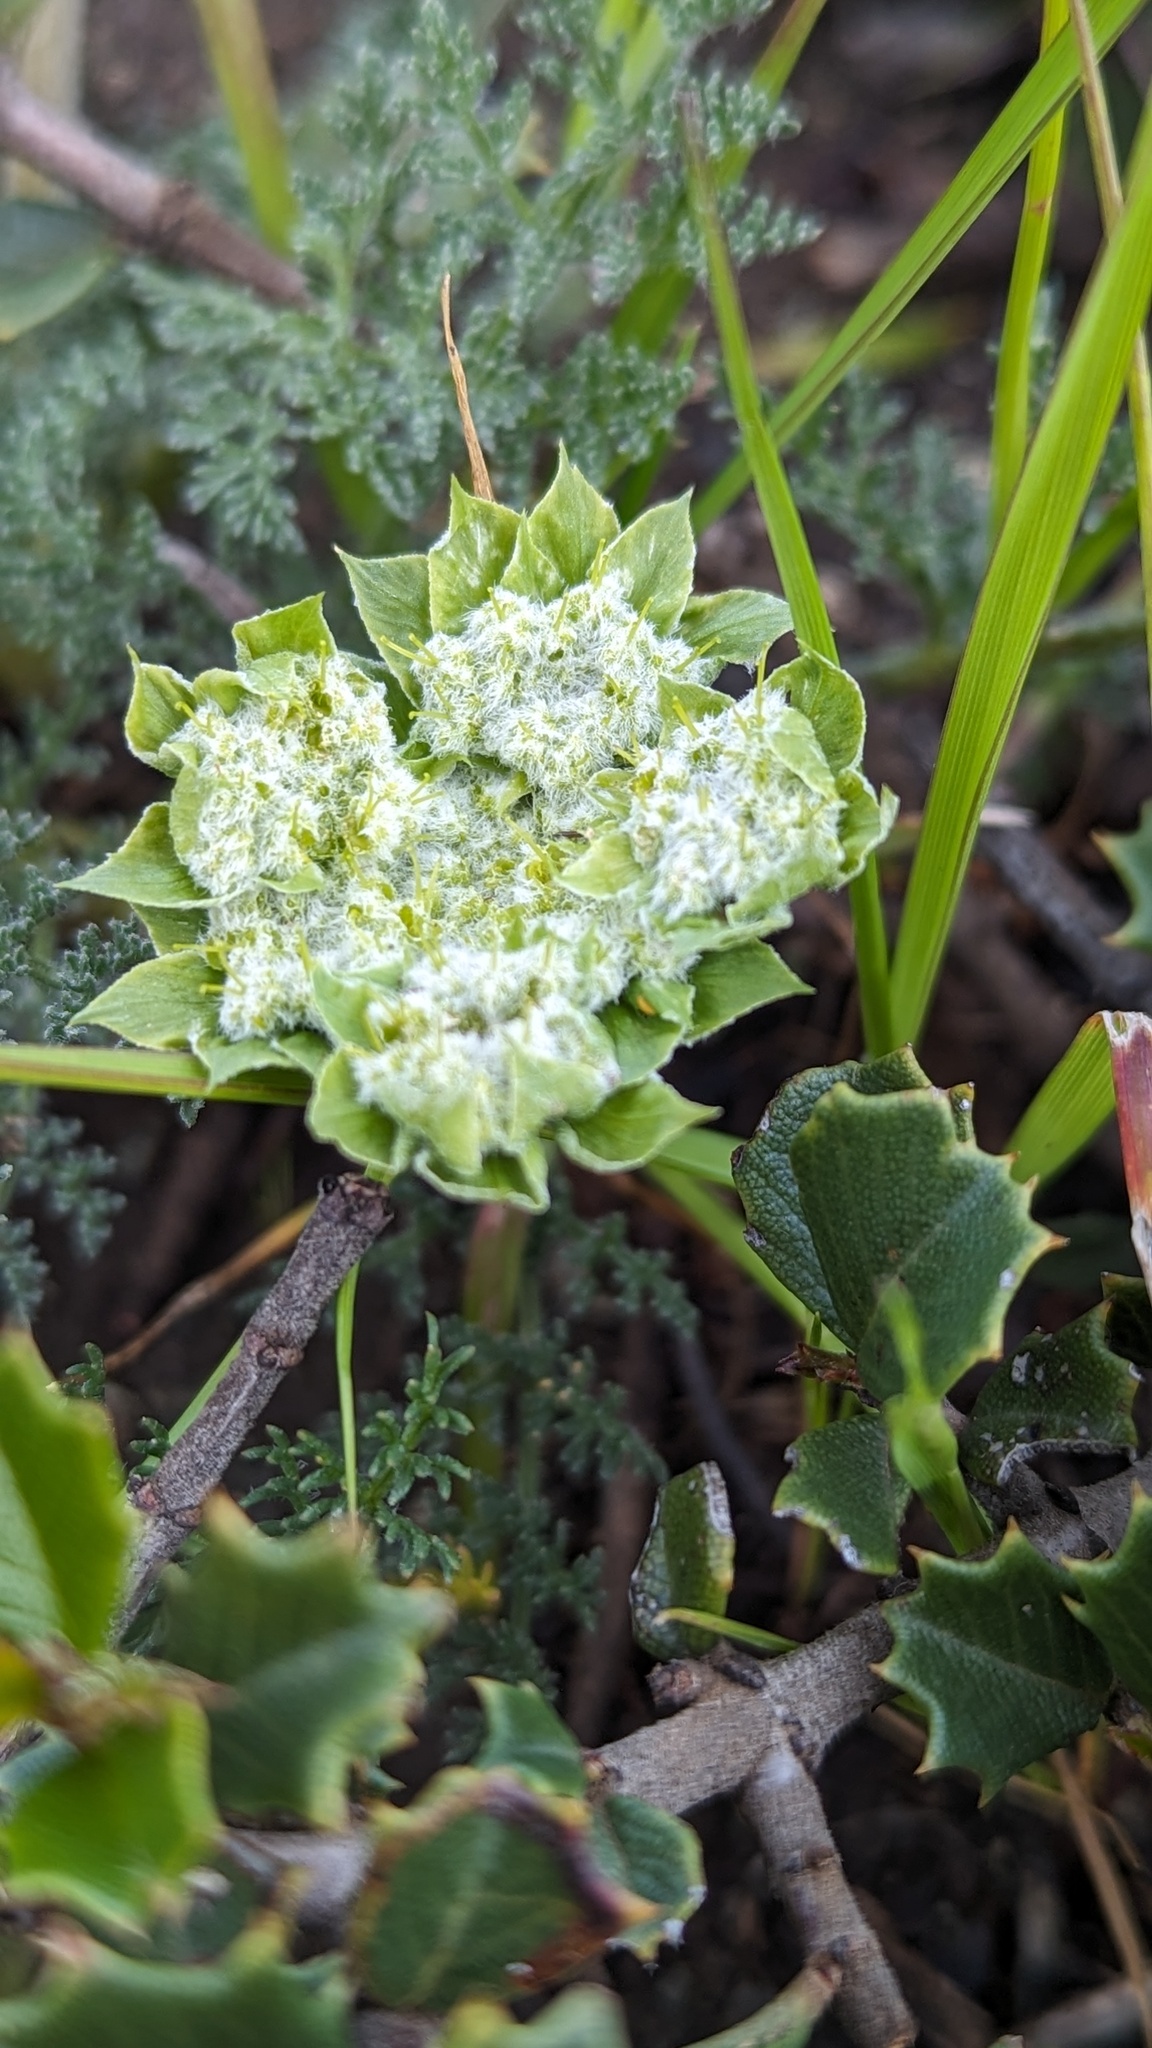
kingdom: Plantae
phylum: Tracheophyta
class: Magnoliopsida
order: Apiales
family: Apiaceae
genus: Lomatium
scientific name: Lomatium dasycarpum
